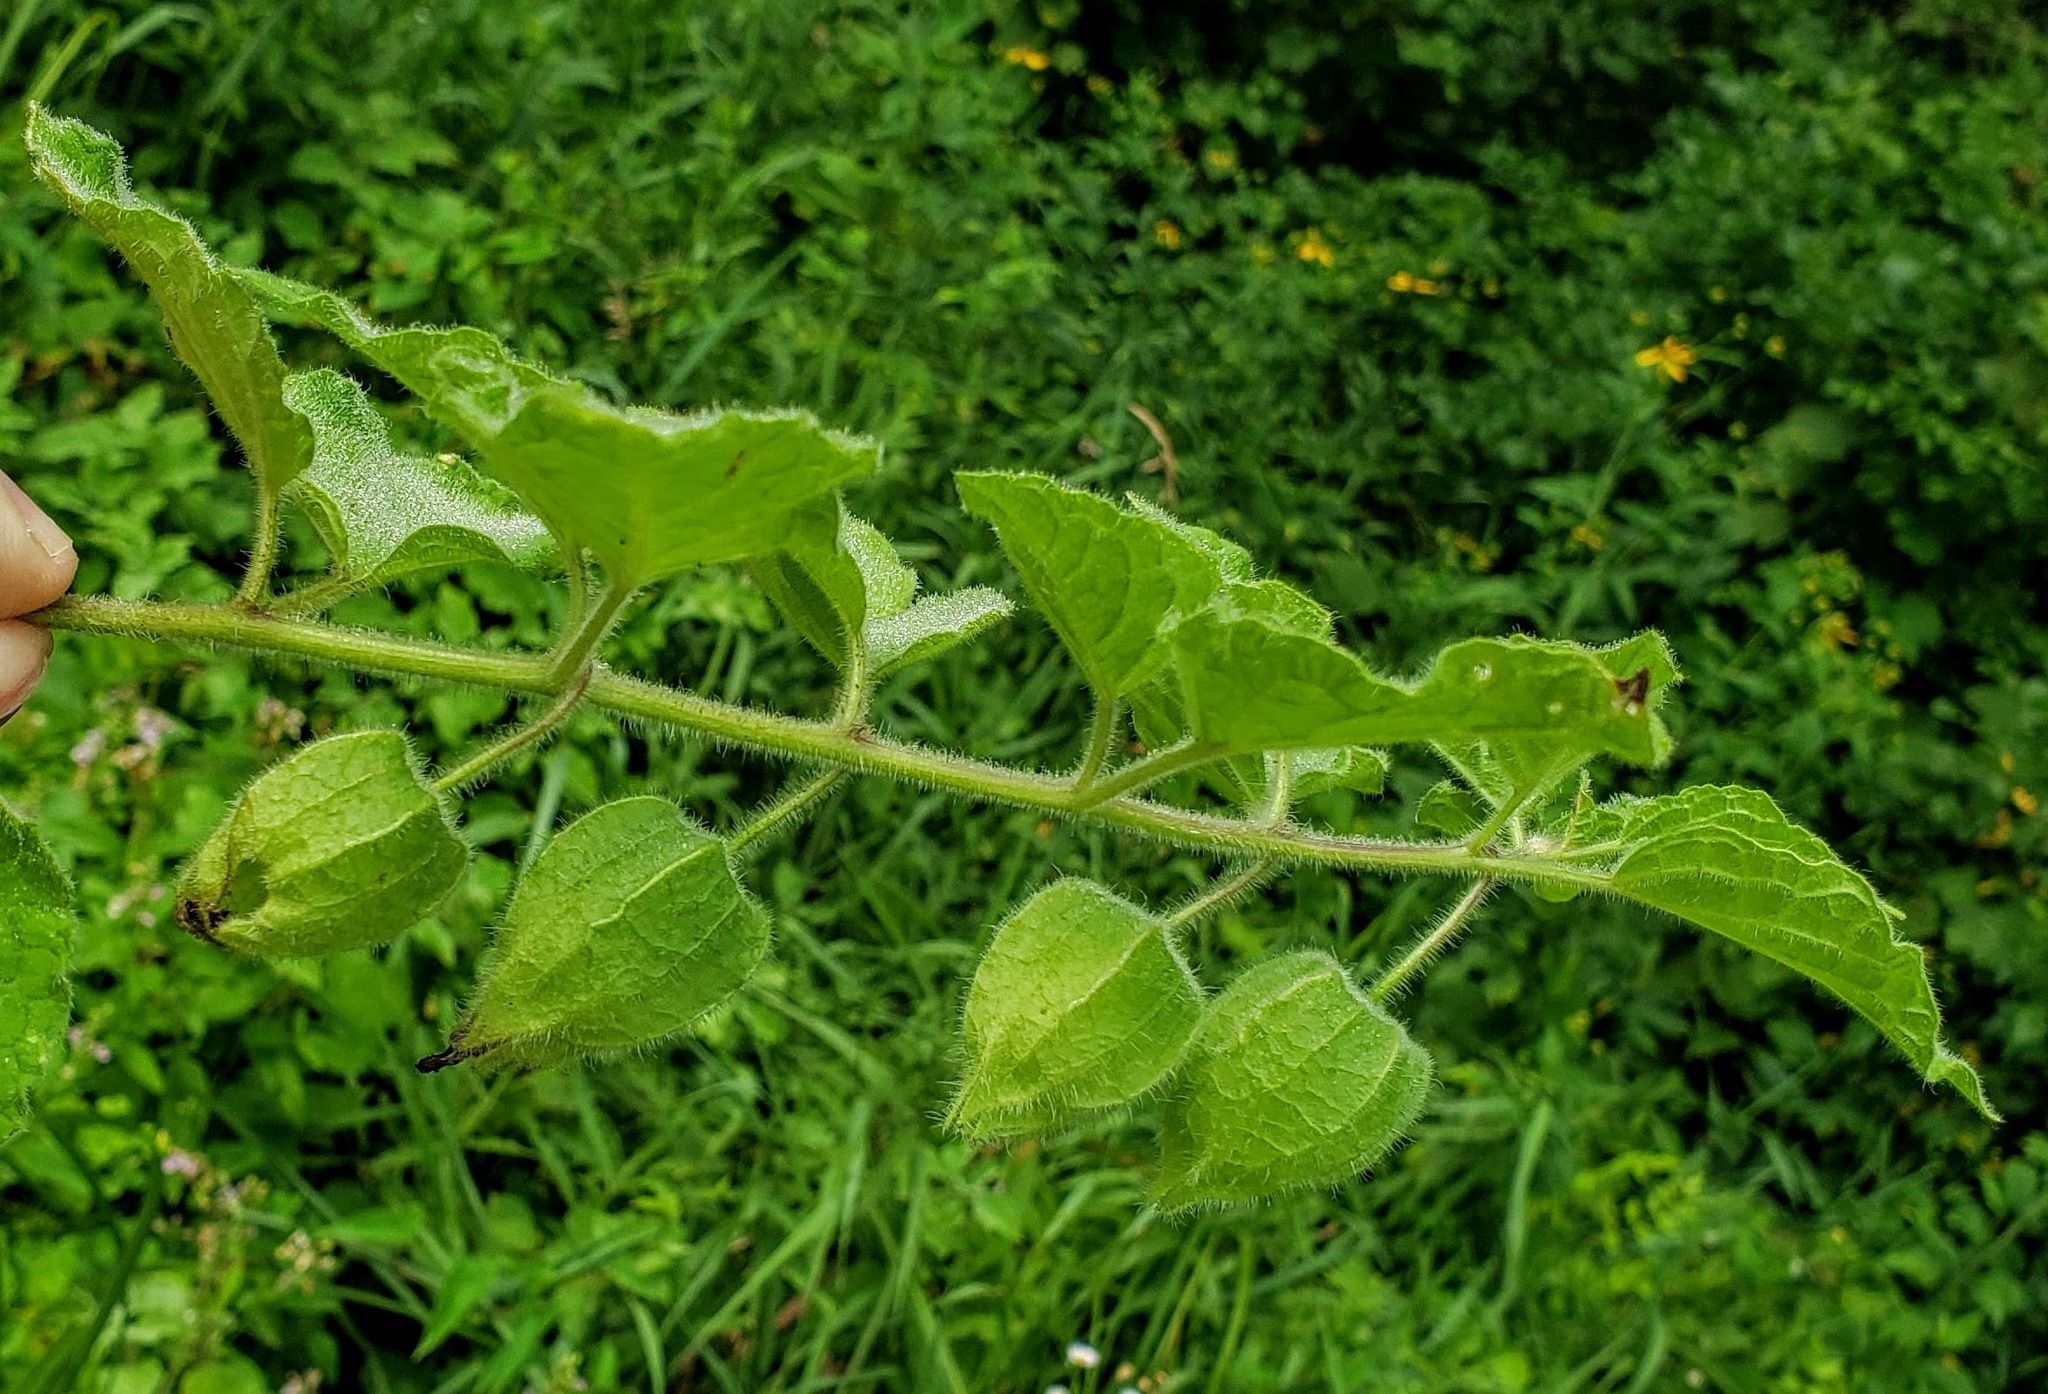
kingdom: Plantae
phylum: Tracheophyta
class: Magnoliopsida
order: Solanales
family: Solanaceae
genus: Physalis
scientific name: Physalis heterophylla
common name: Clammy ground-cherry
